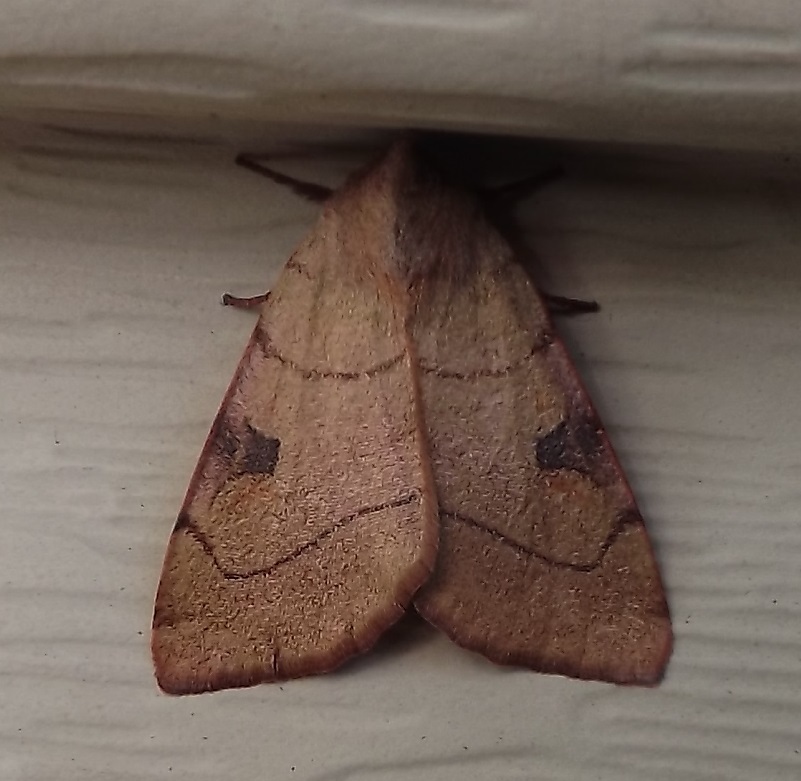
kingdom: Animalia
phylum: Arthropoda
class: Insecta
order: Lepidoptera
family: Noctuidae
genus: Choephora
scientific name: Choephora fungorum
